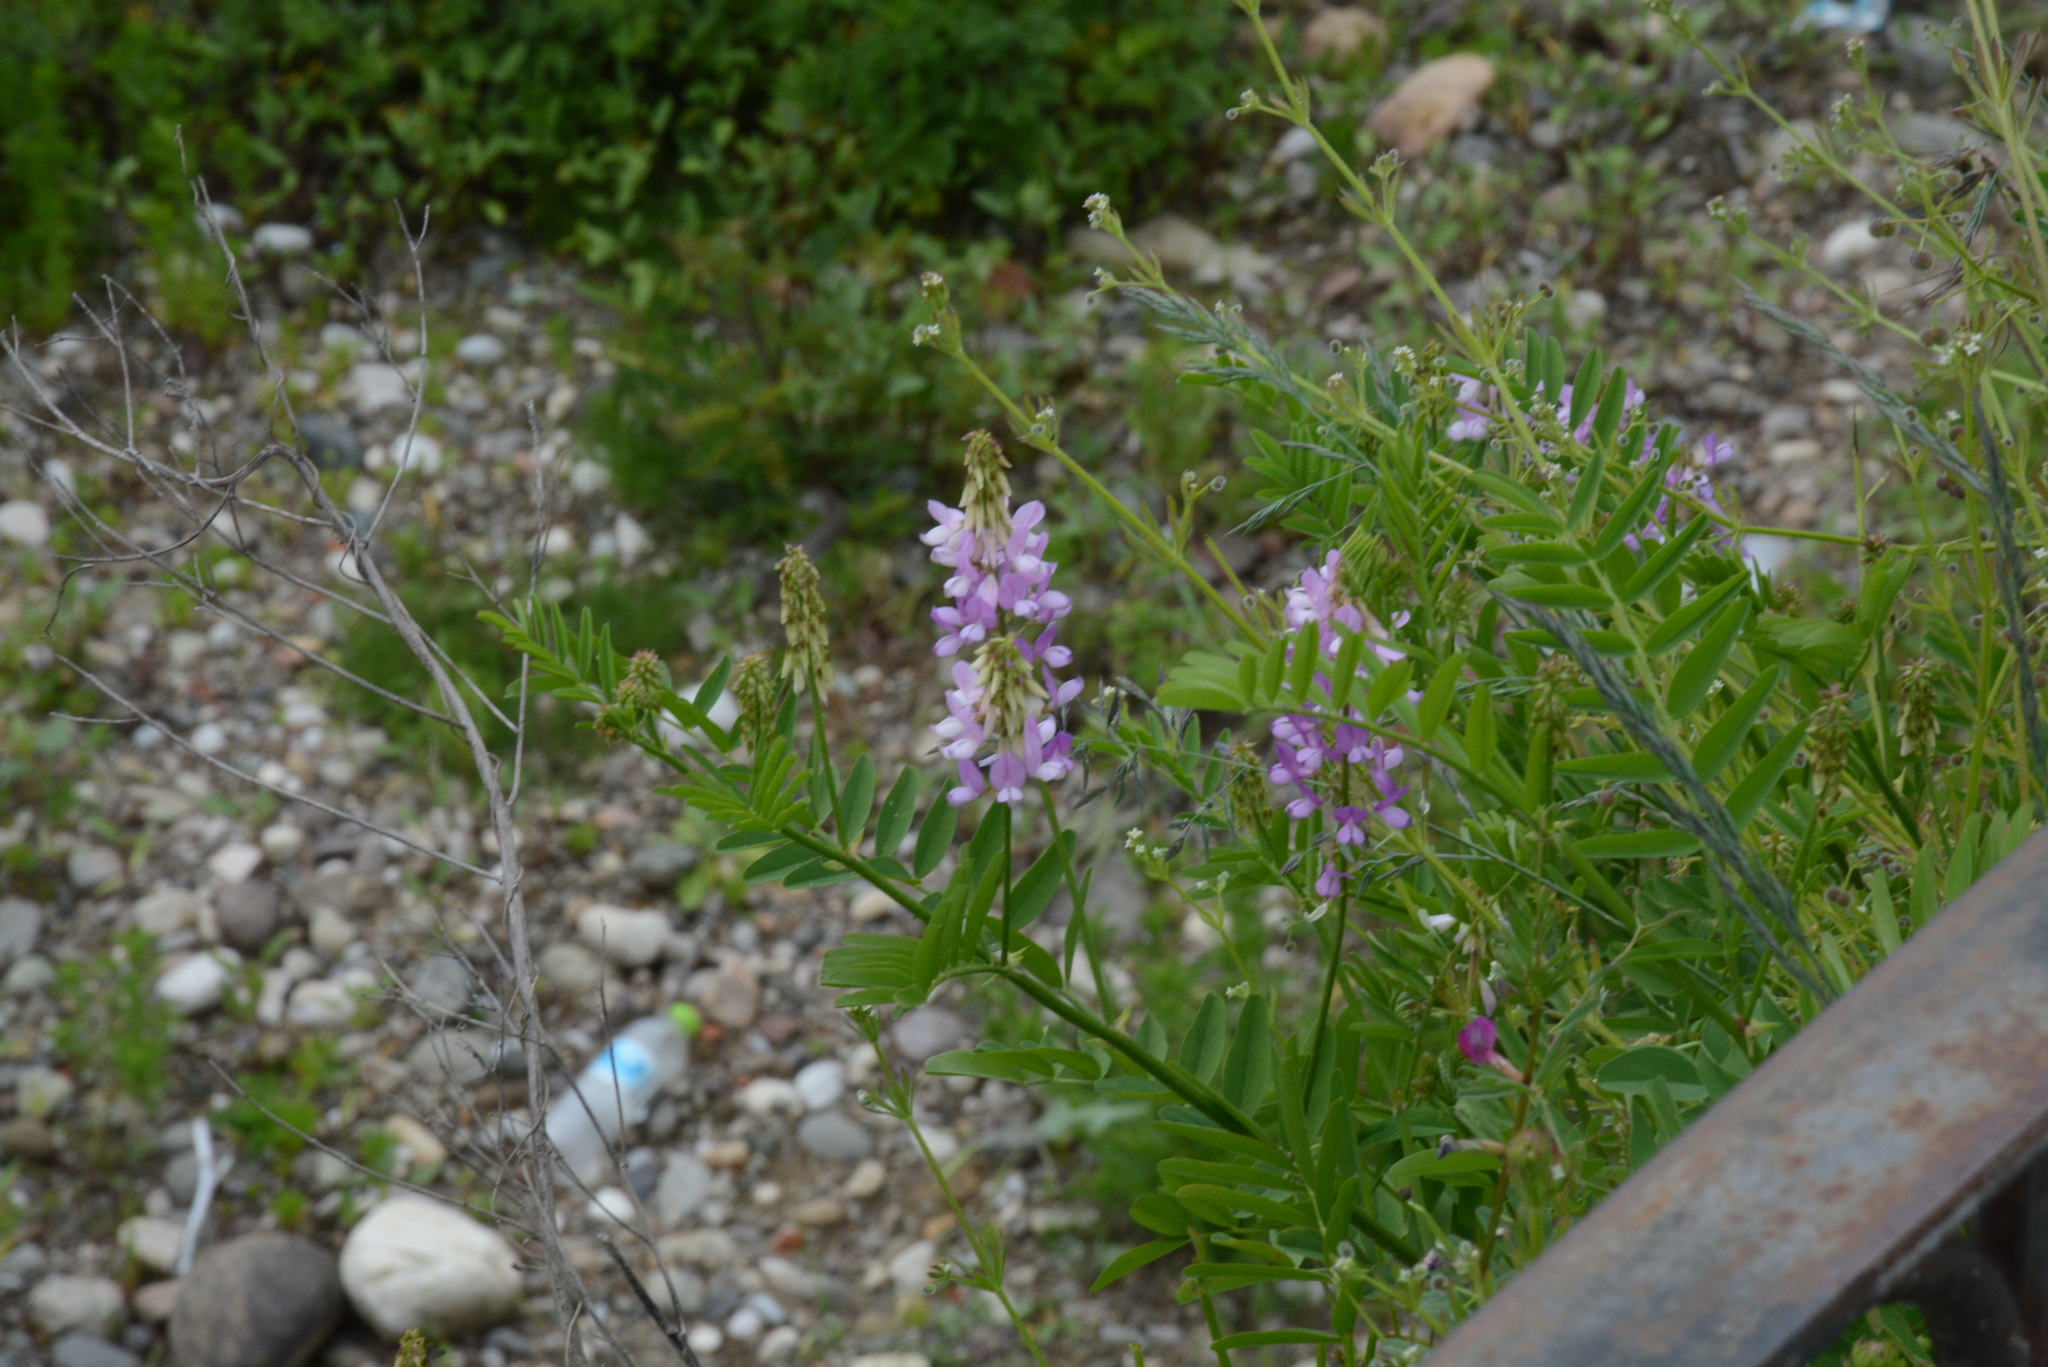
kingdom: Plantae
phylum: Tracheophyta
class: Magnoliopsida
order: Fabales
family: Fabaceae
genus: Galega
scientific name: Galega officinalis
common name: Goat's-rue
